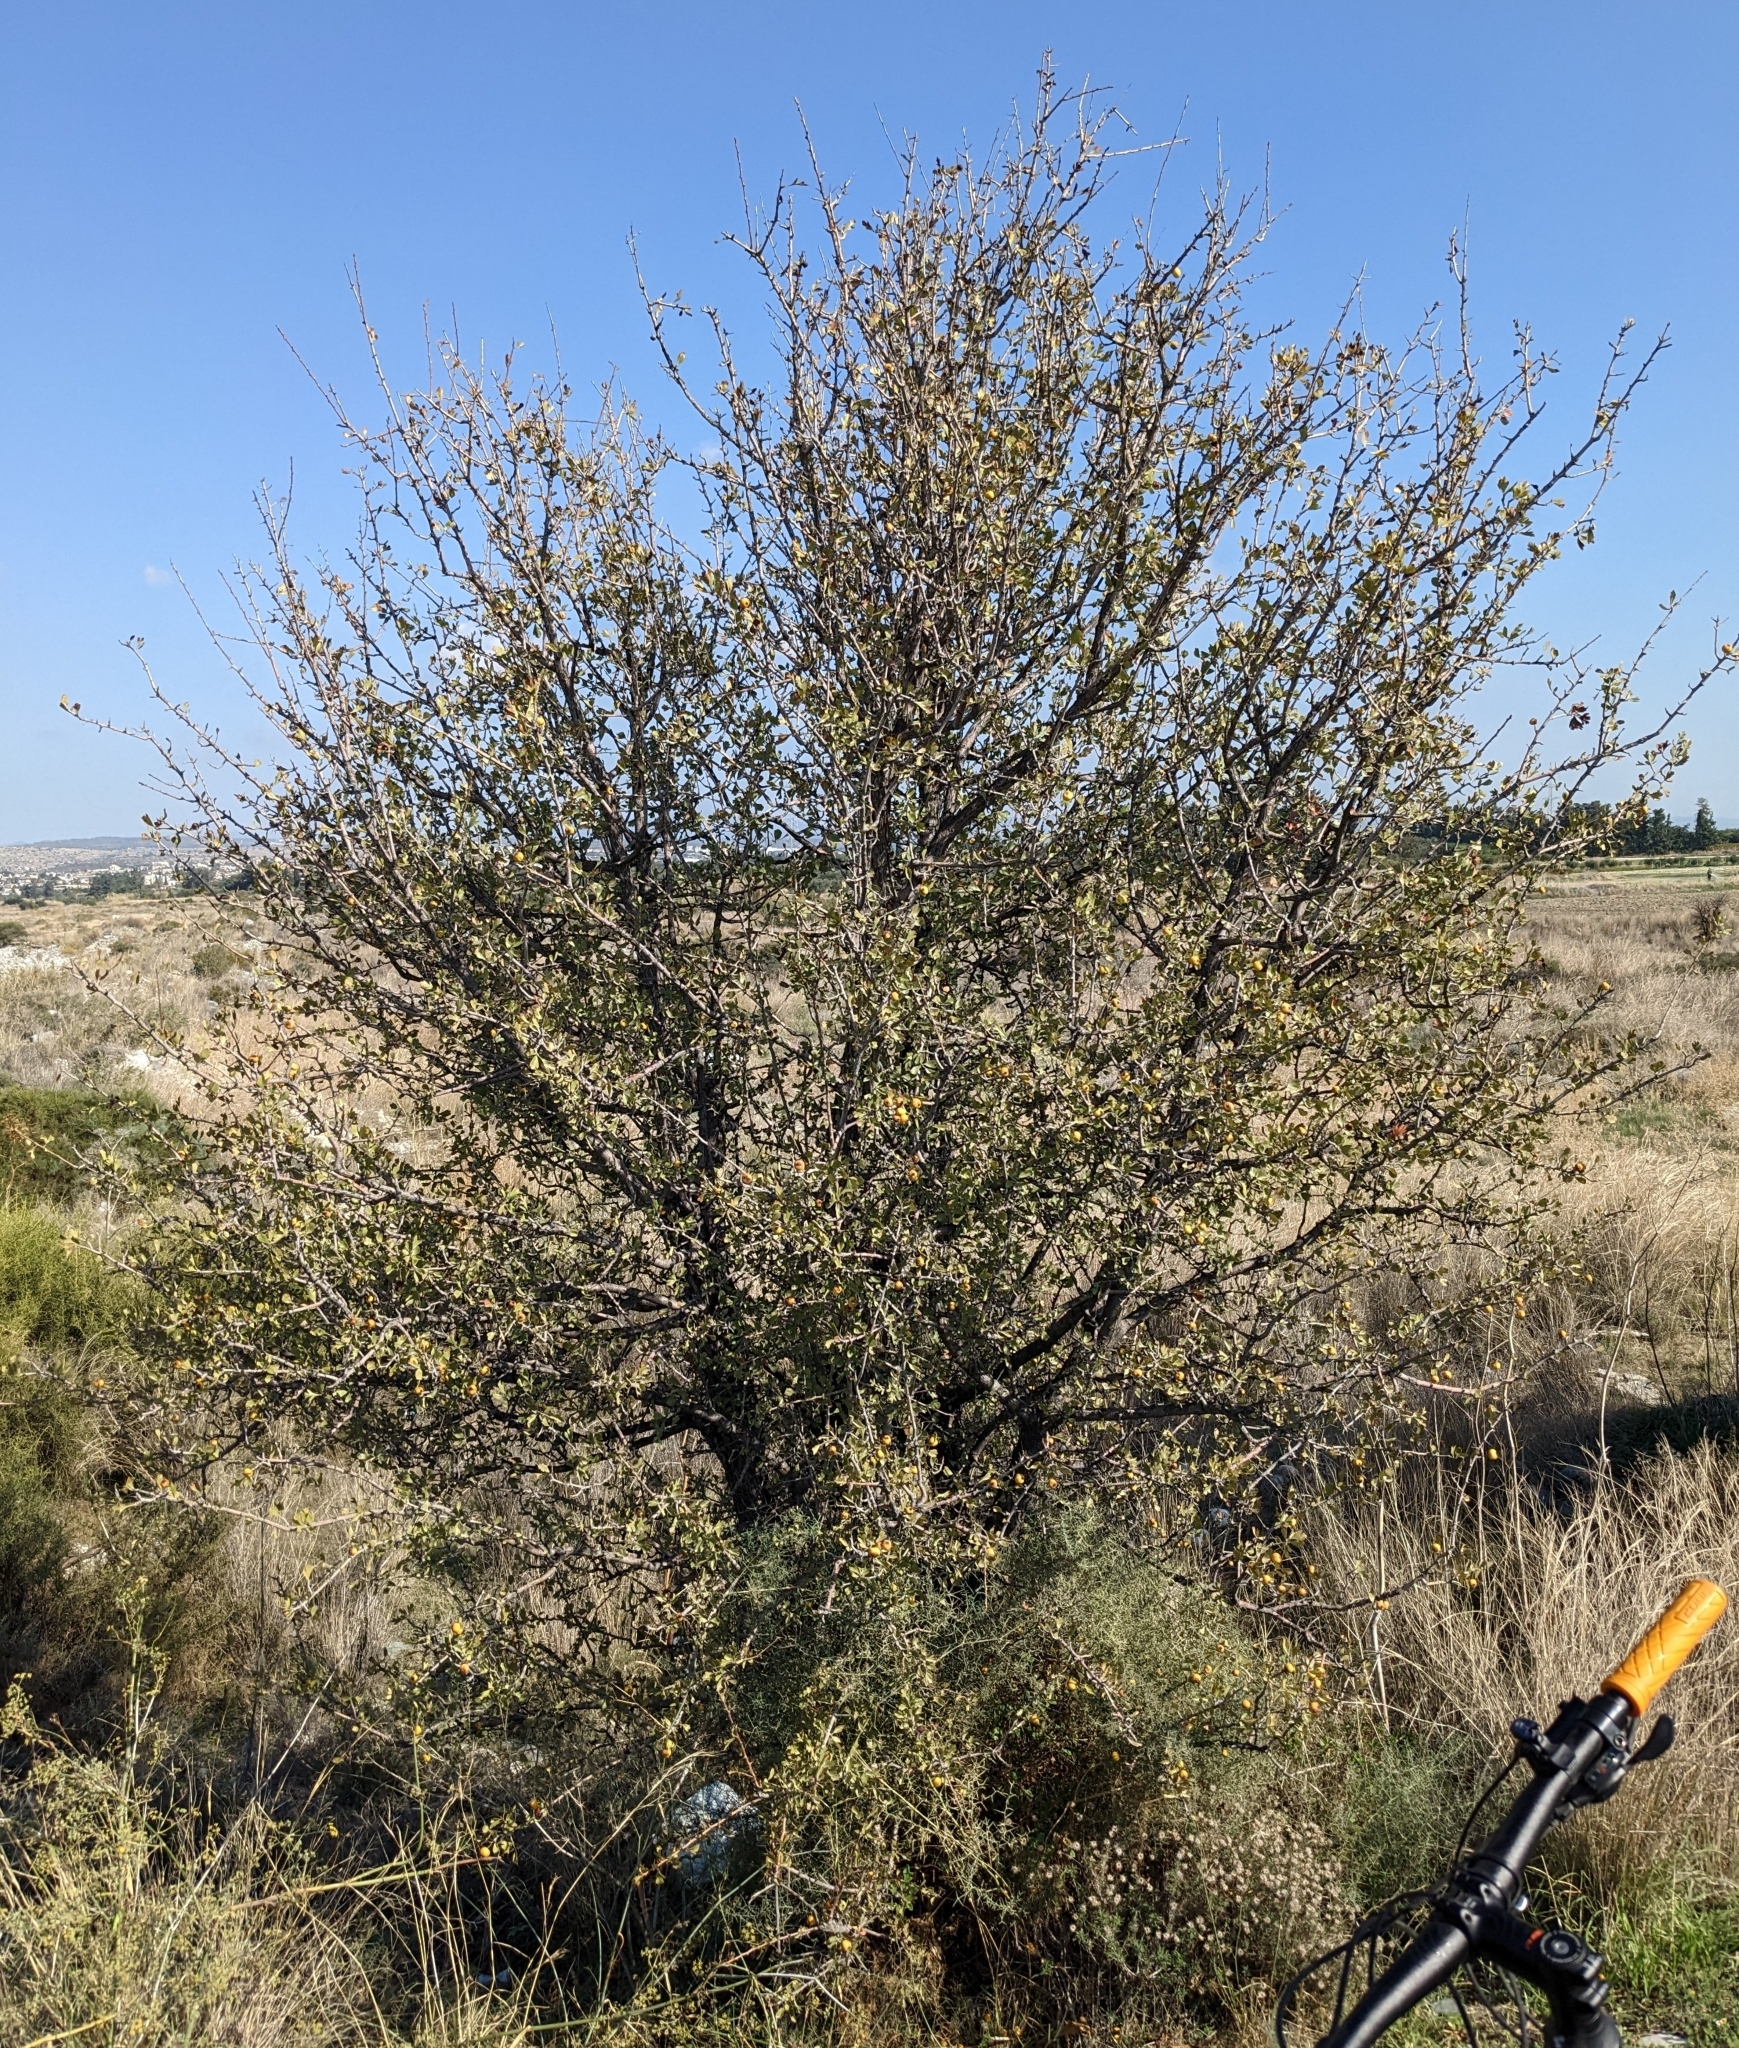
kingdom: Plantae
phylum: Tracheophyta
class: Magnoliopsida
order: Rosales
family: Rosaceae
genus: Crataegus
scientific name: Crataegus azarolus
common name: Azarole
